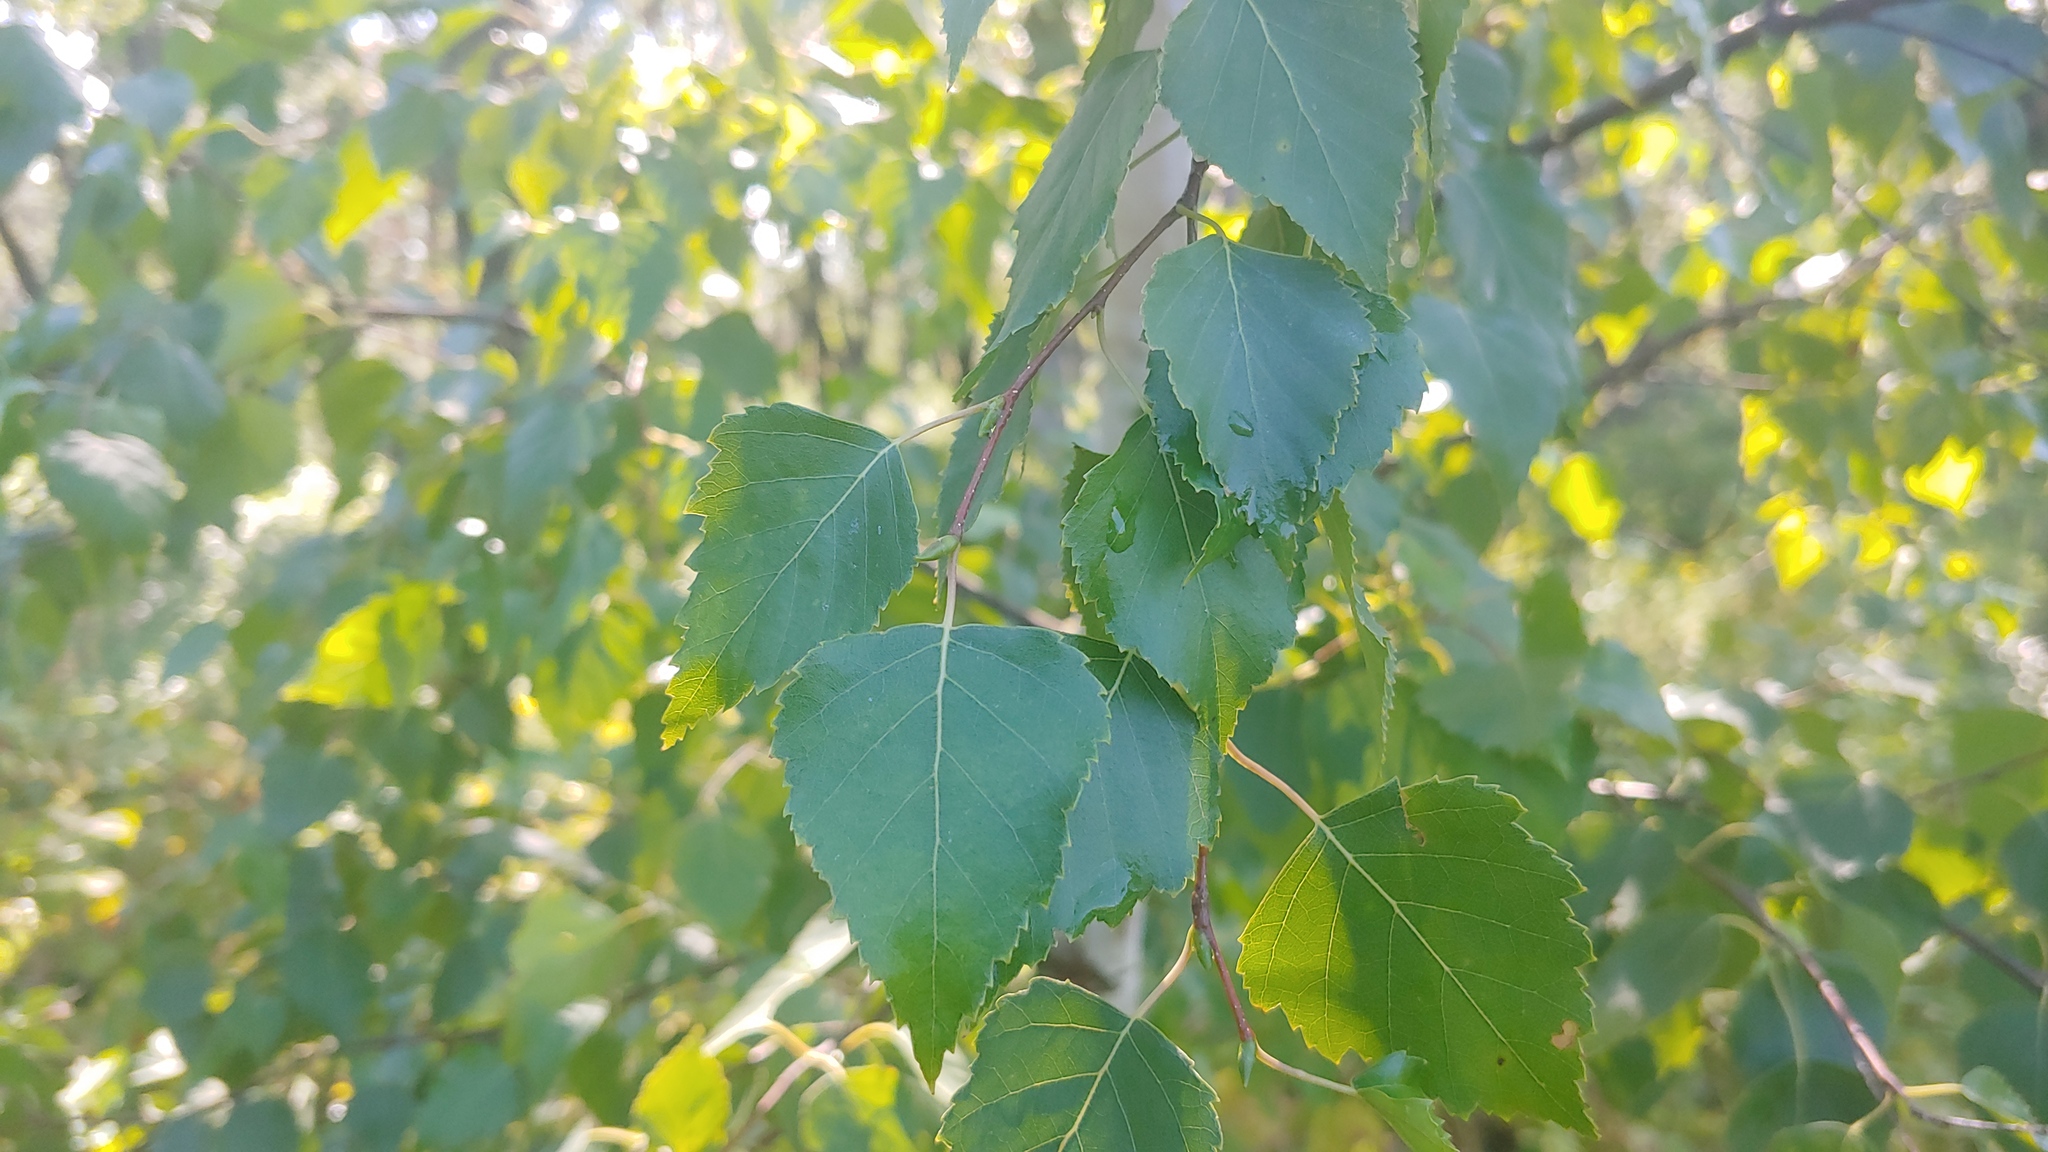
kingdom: Plantae
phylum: Tracheophyta
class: Magnoliopsida
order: Fagales
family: Betulaceae
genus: Betula
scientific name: Betula nigra
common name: Black birch
